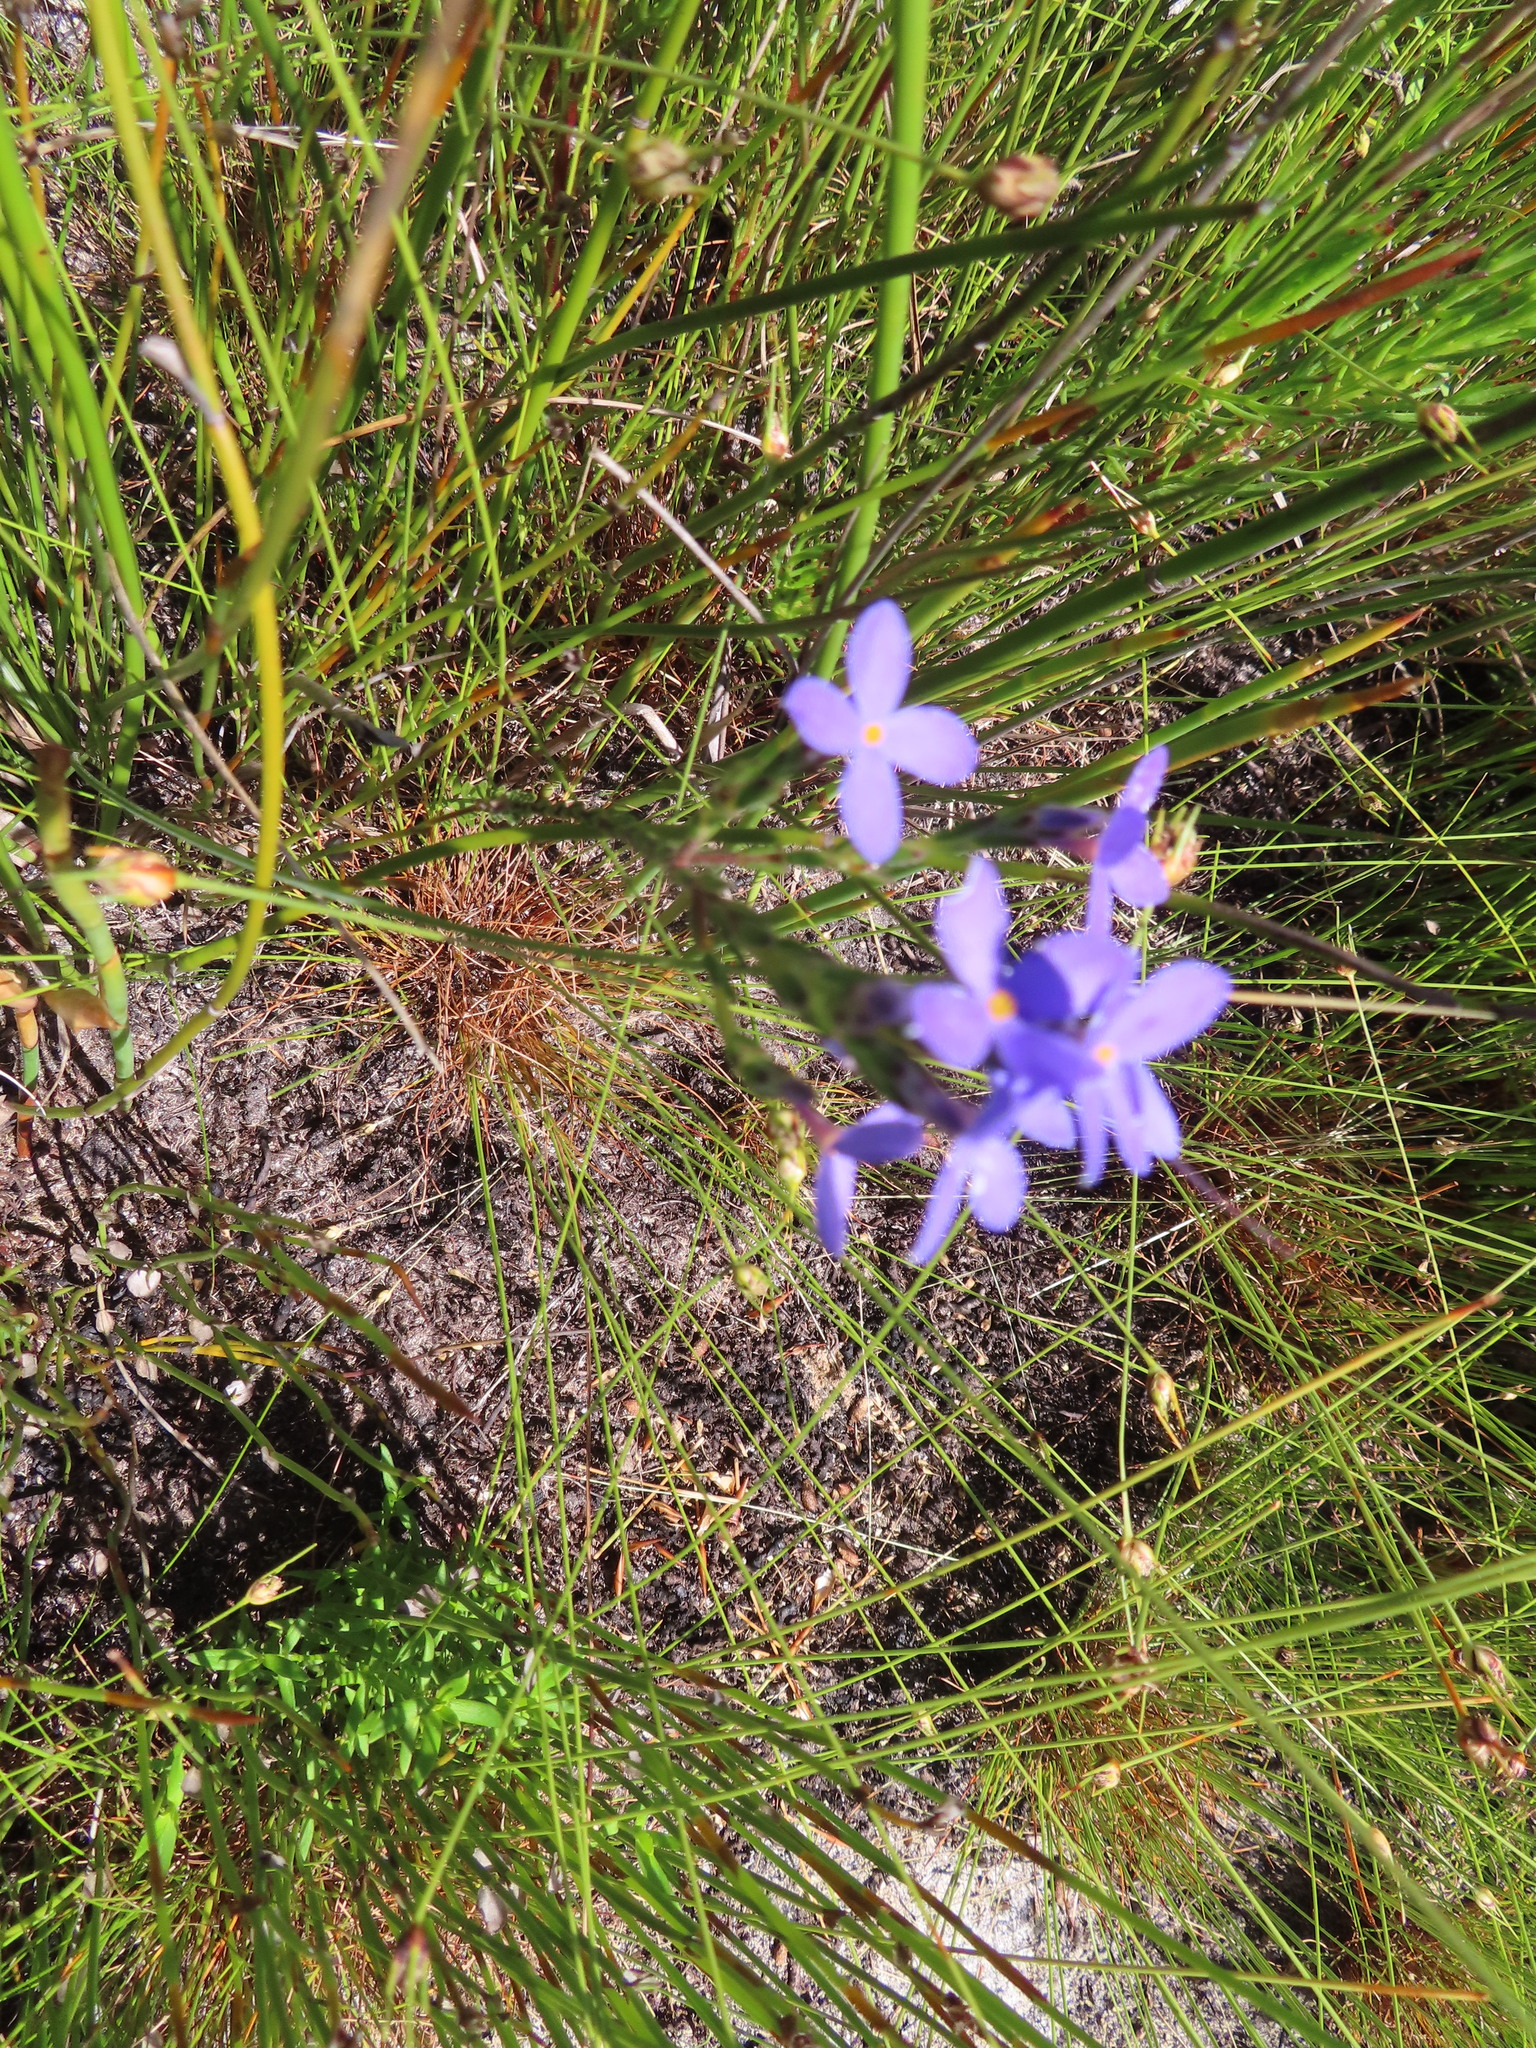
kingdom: Plantae
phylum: Tracheophyta
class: Magnoliopsida
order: Malvales
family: Thymelaeaceae
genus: Gnidia
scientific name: Gnidia penicillata
